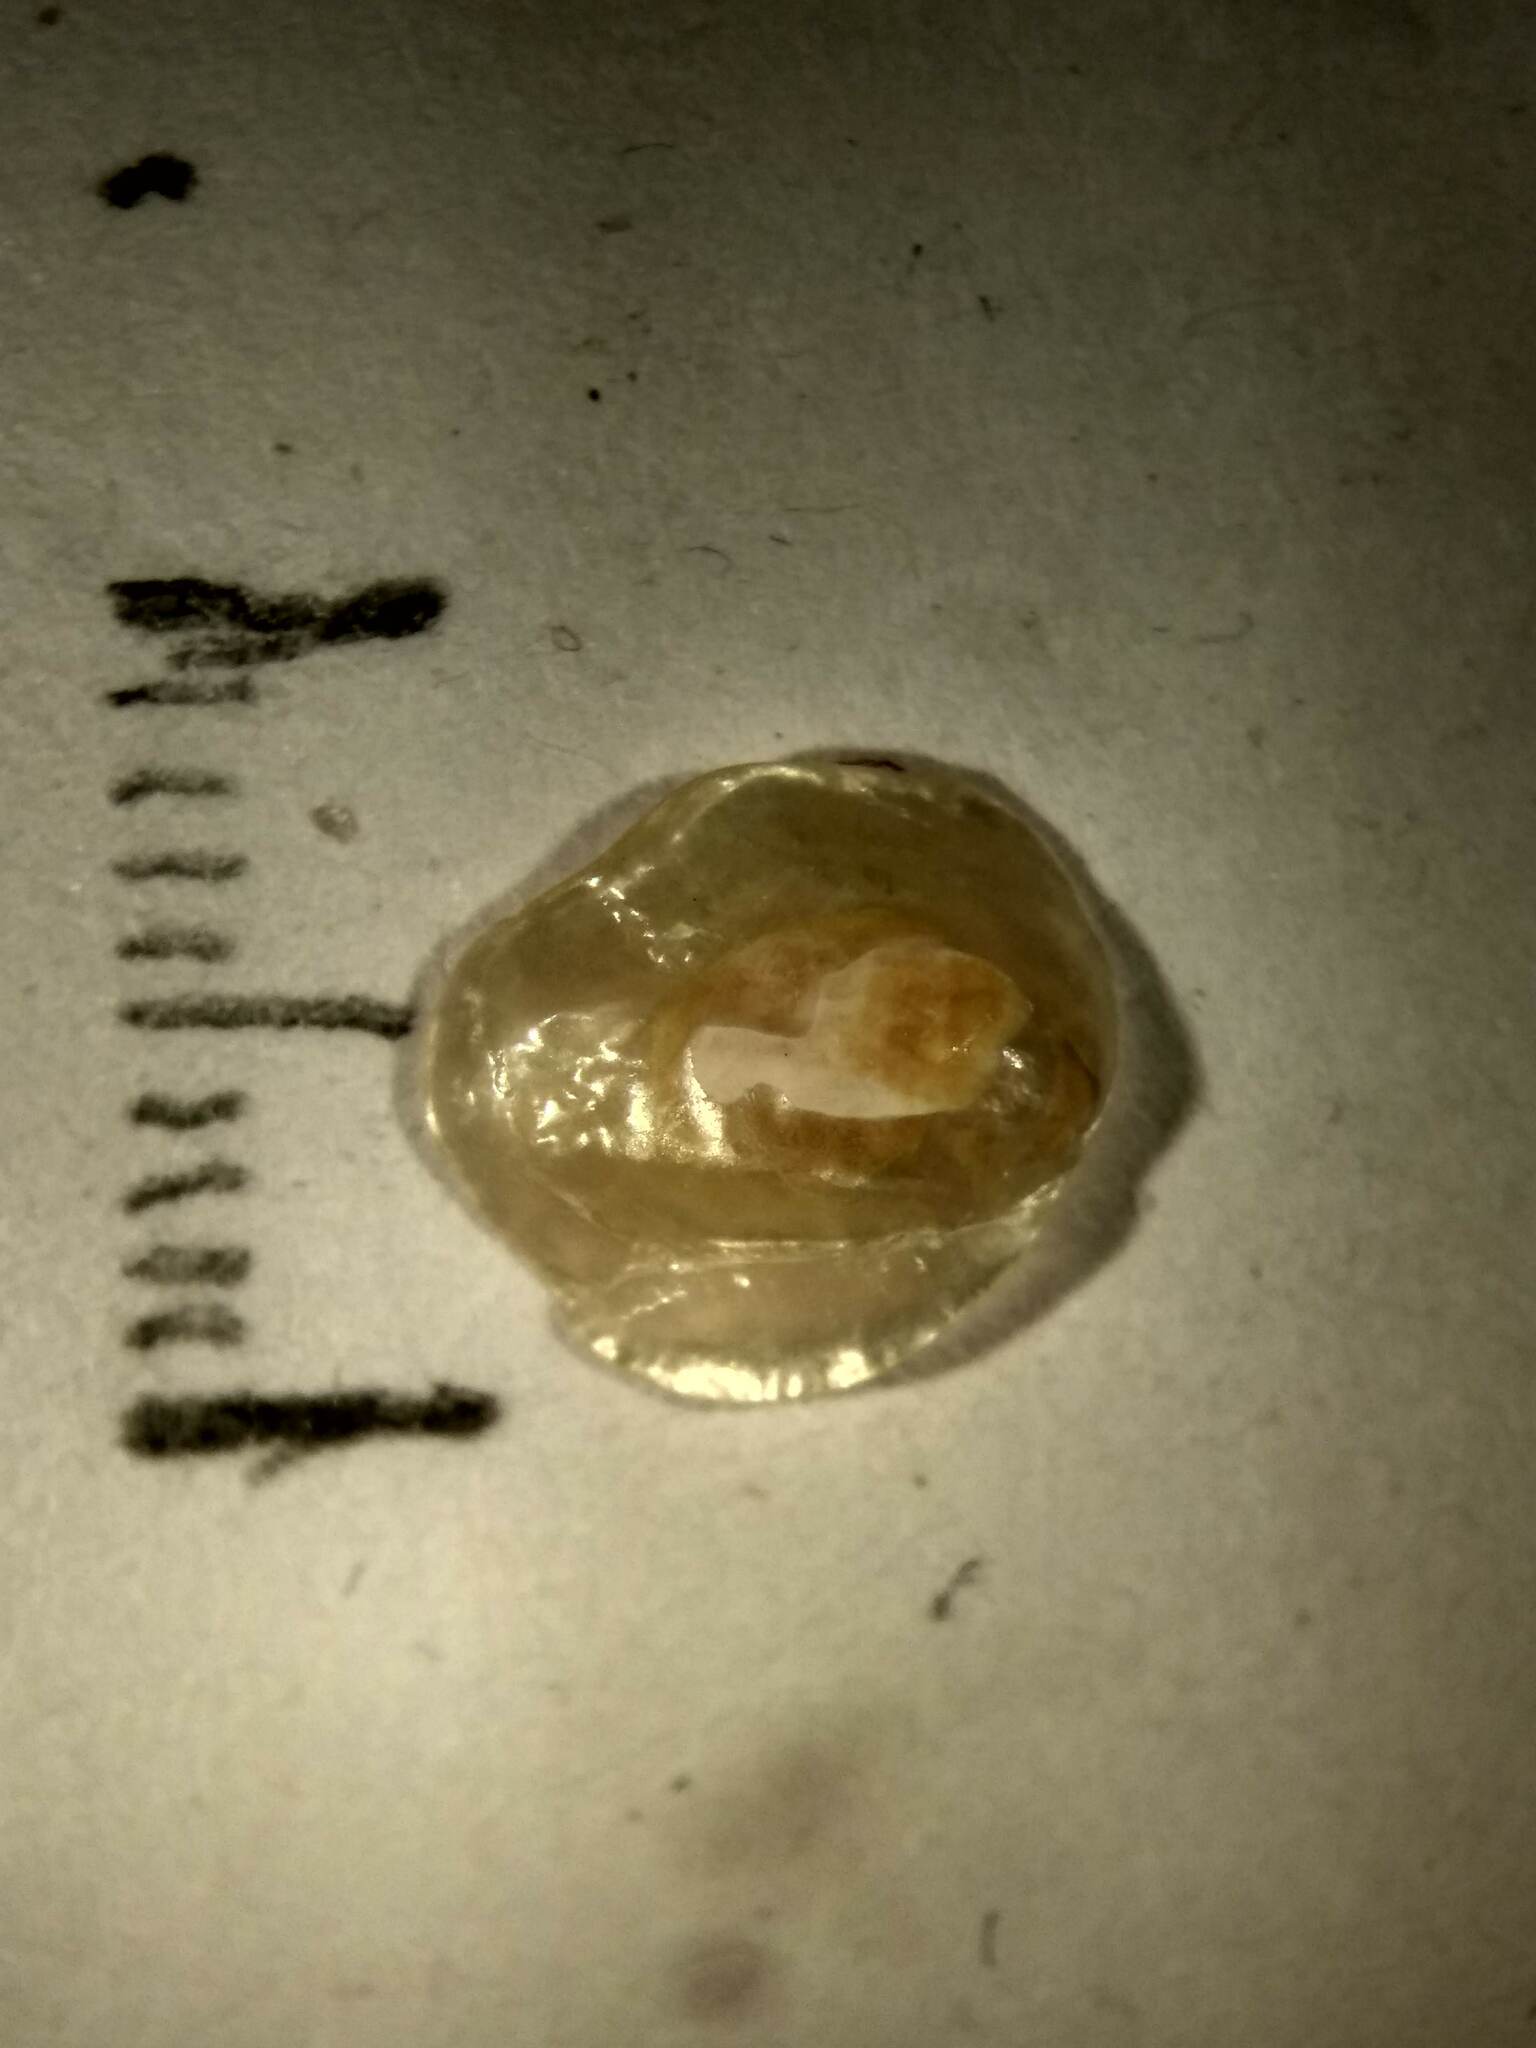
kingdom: Animalia
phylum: Mollusca
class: Bivalvia
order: Pectinida
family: Anomiidae
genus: Anomia
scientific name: Anomia simplex
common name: Common jingle shell
